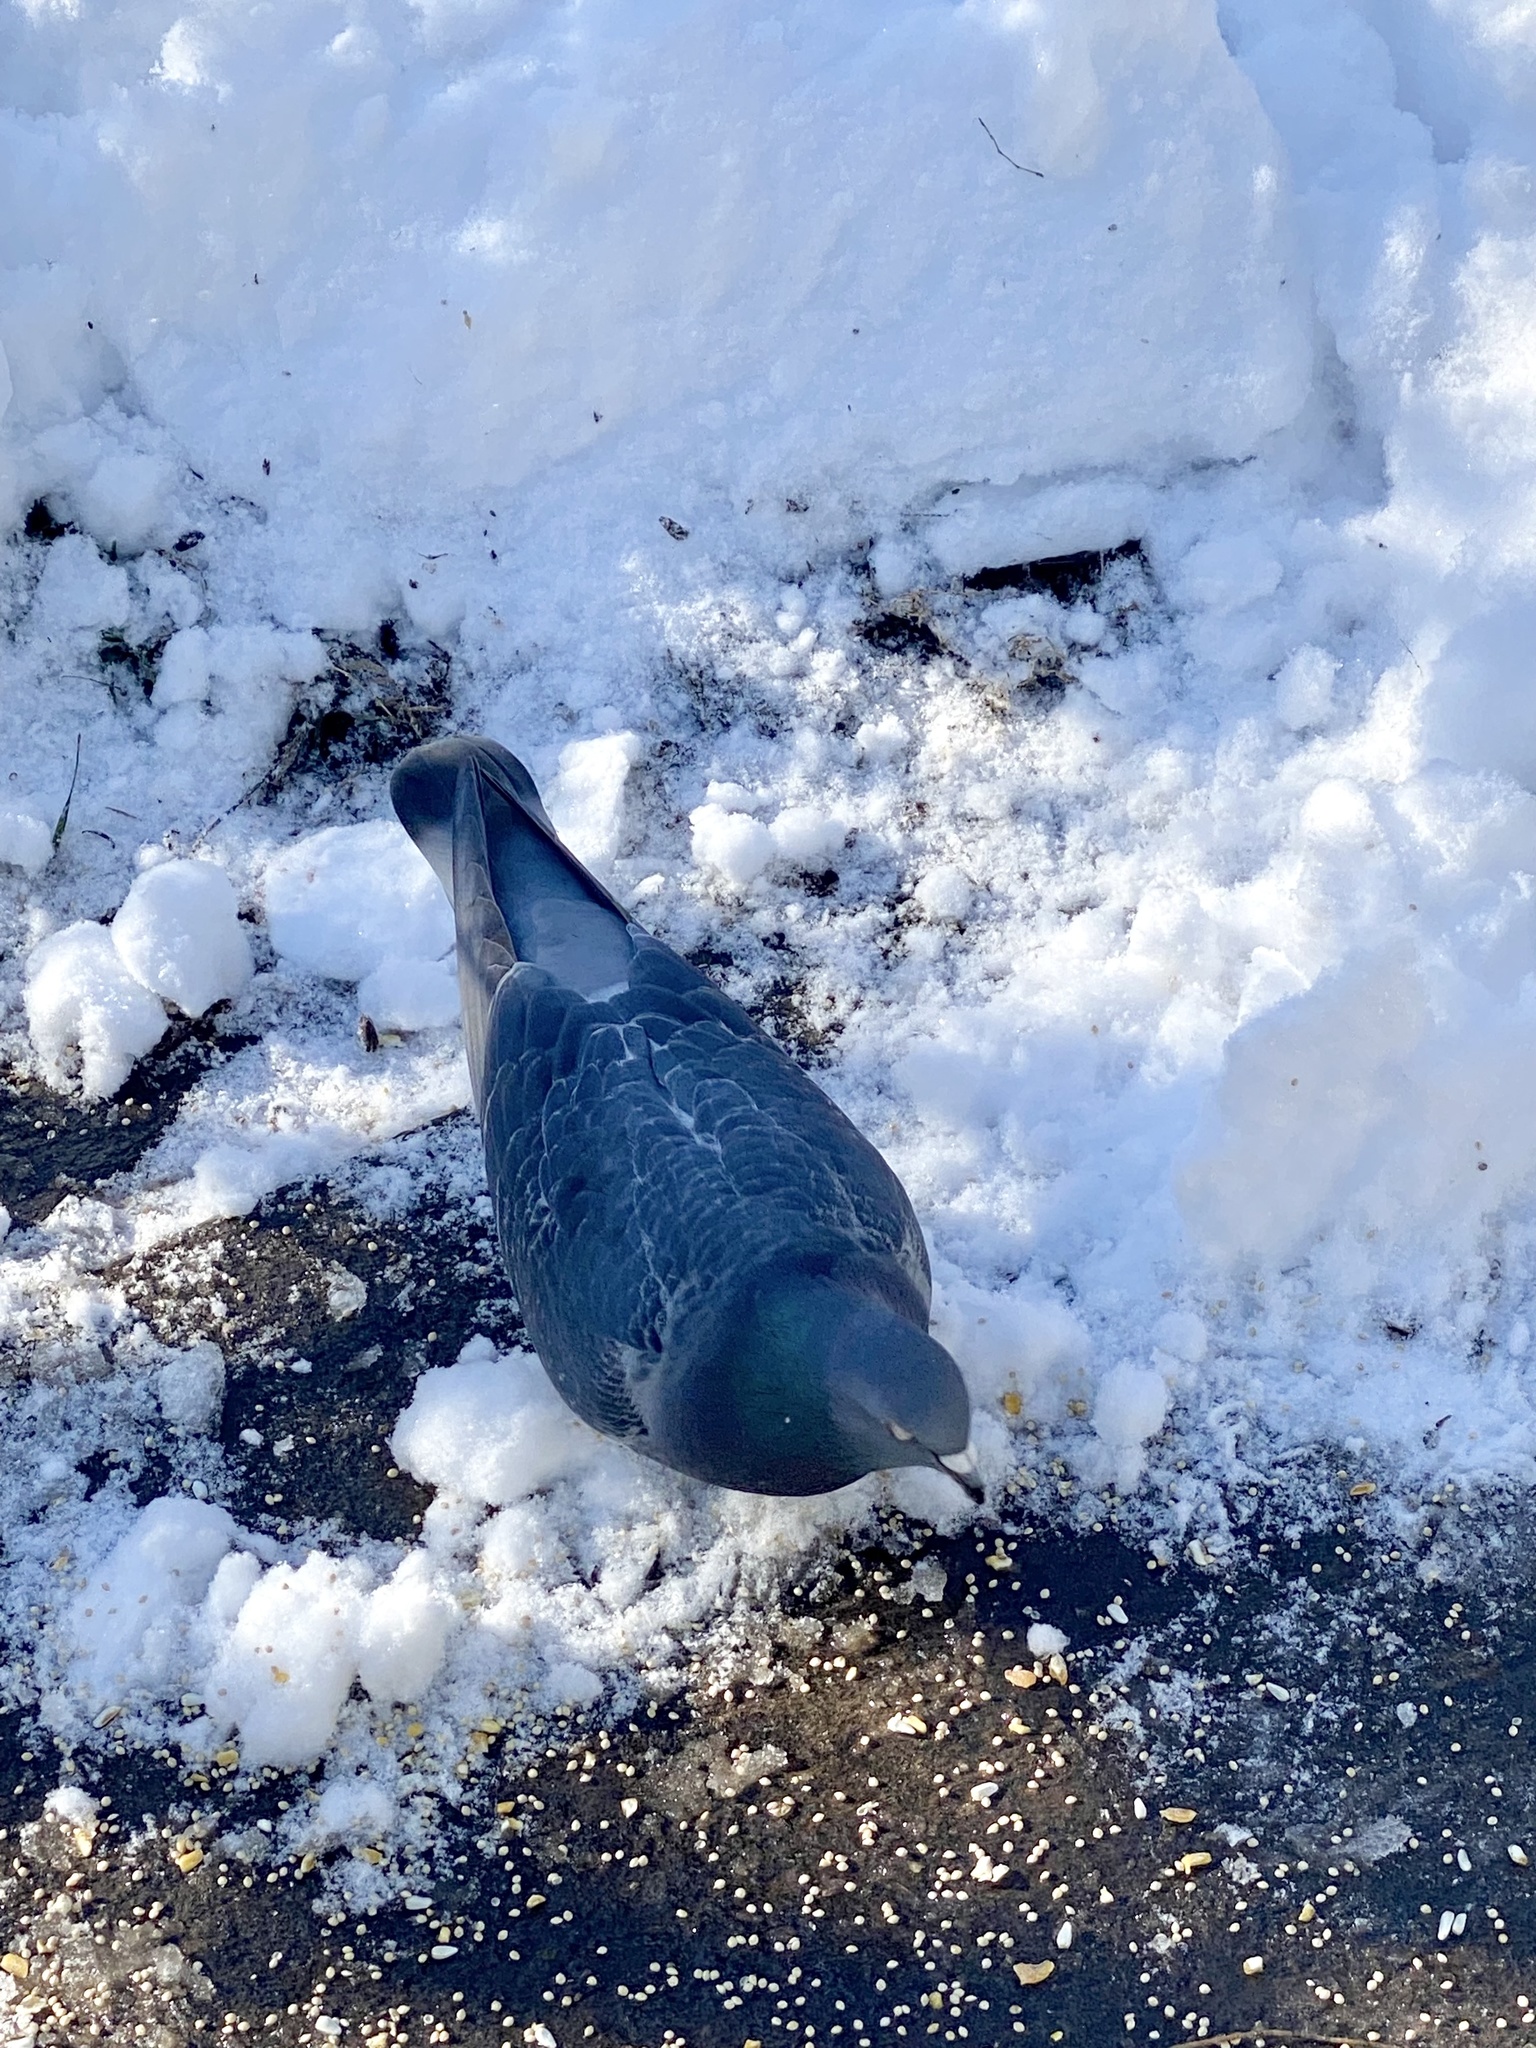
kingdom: Animalia
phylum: Chordata
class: Aves
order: Columbiformes
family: Columbidae
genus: Columba
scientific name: Columba livia
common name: Rock pigeon
